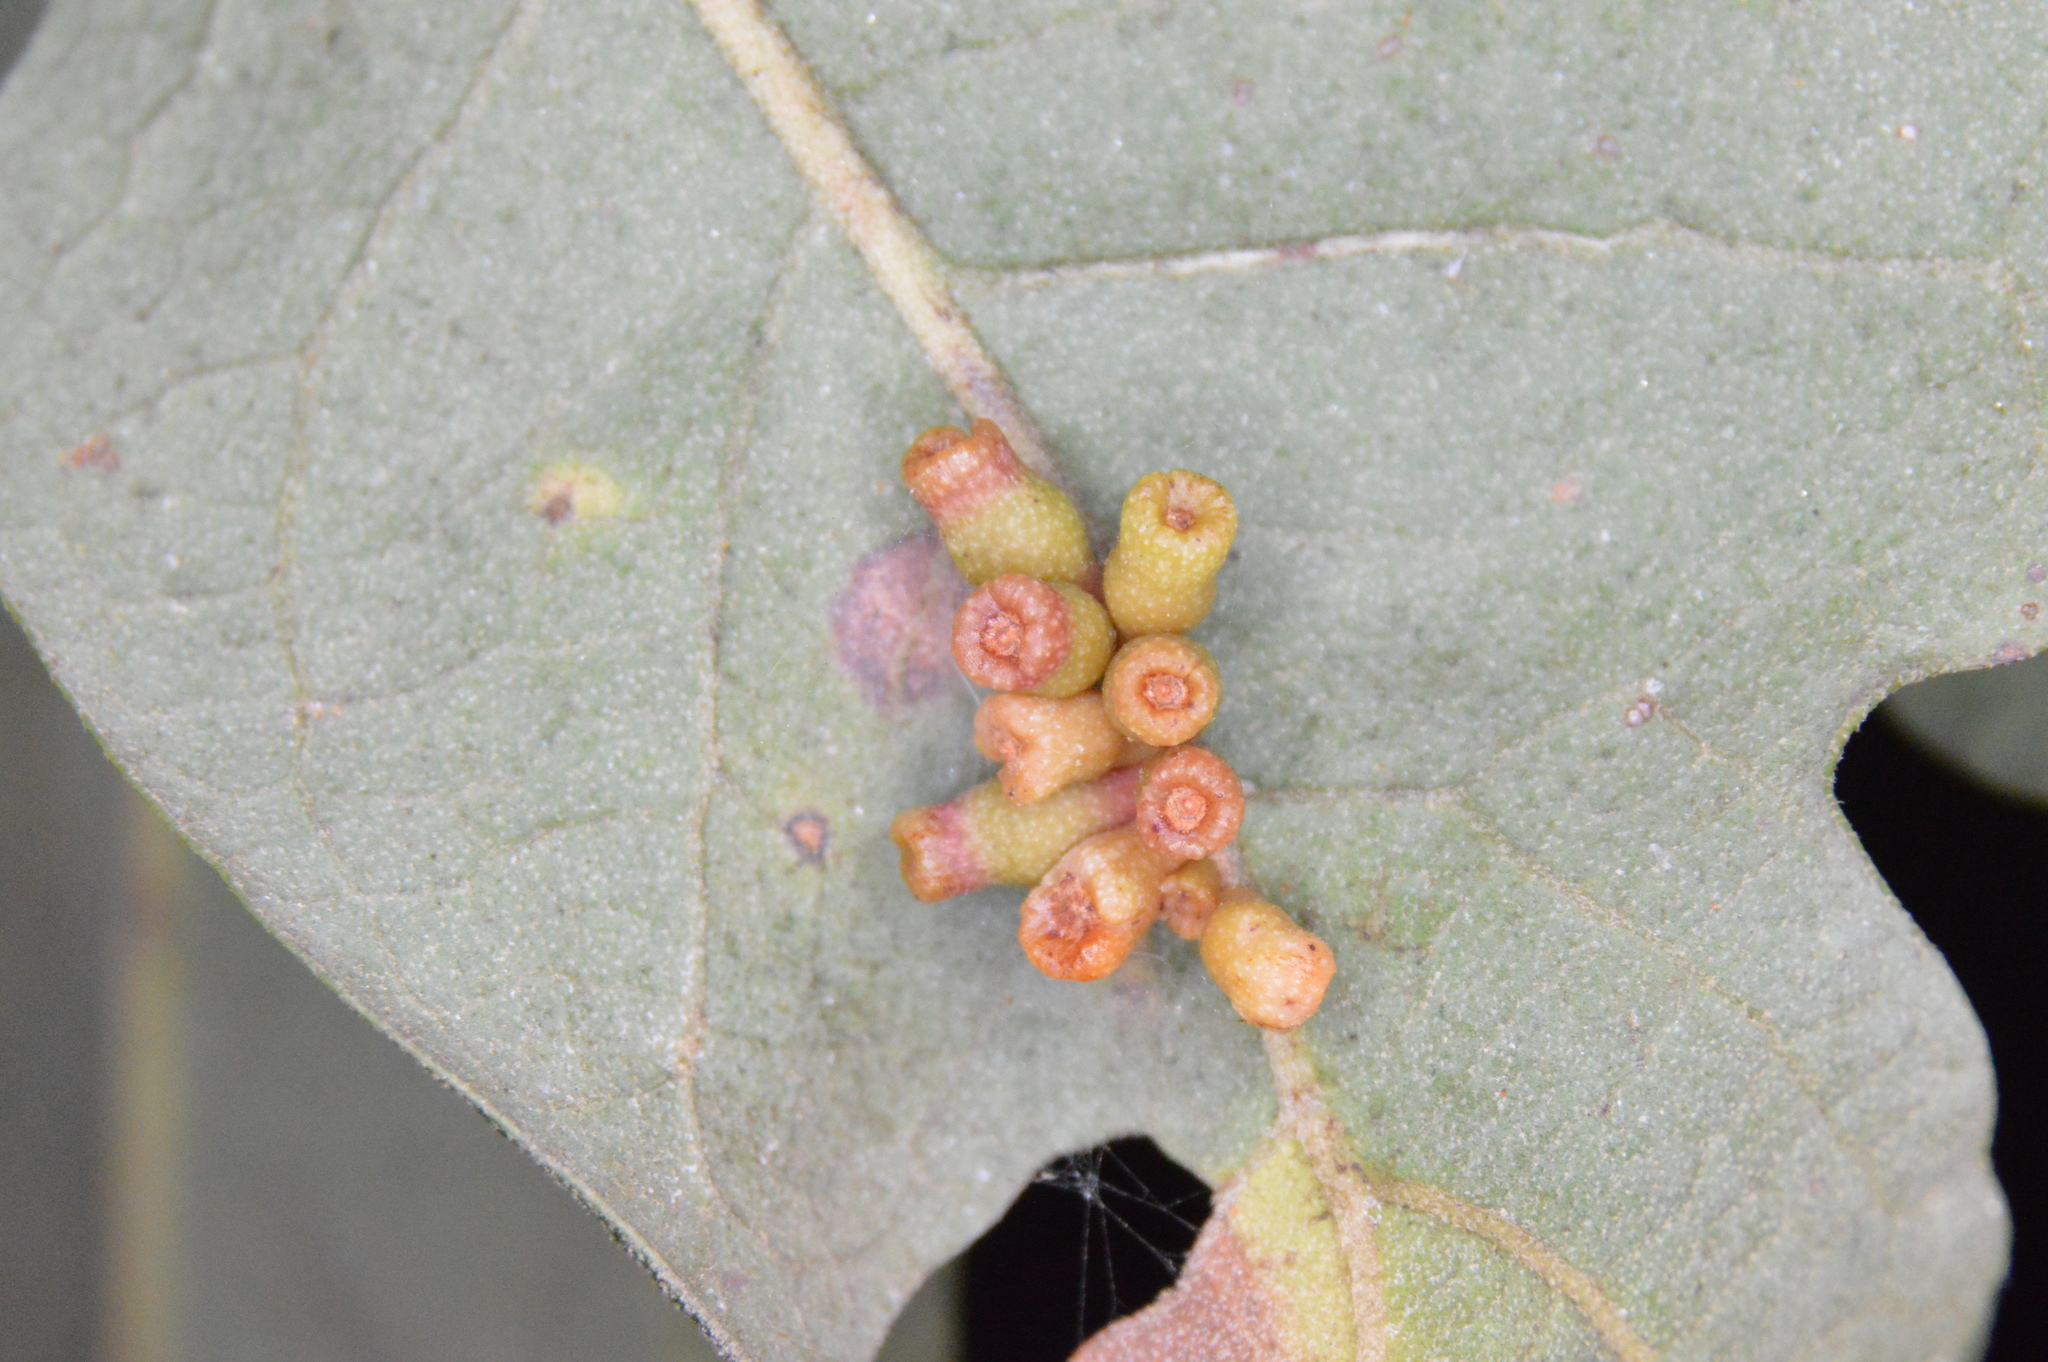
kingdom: Animalia
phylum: Arthropoda
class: Insecta
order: Hymenoptera
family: Cynipidae
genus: Andricus
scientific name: Andricus lustrans
